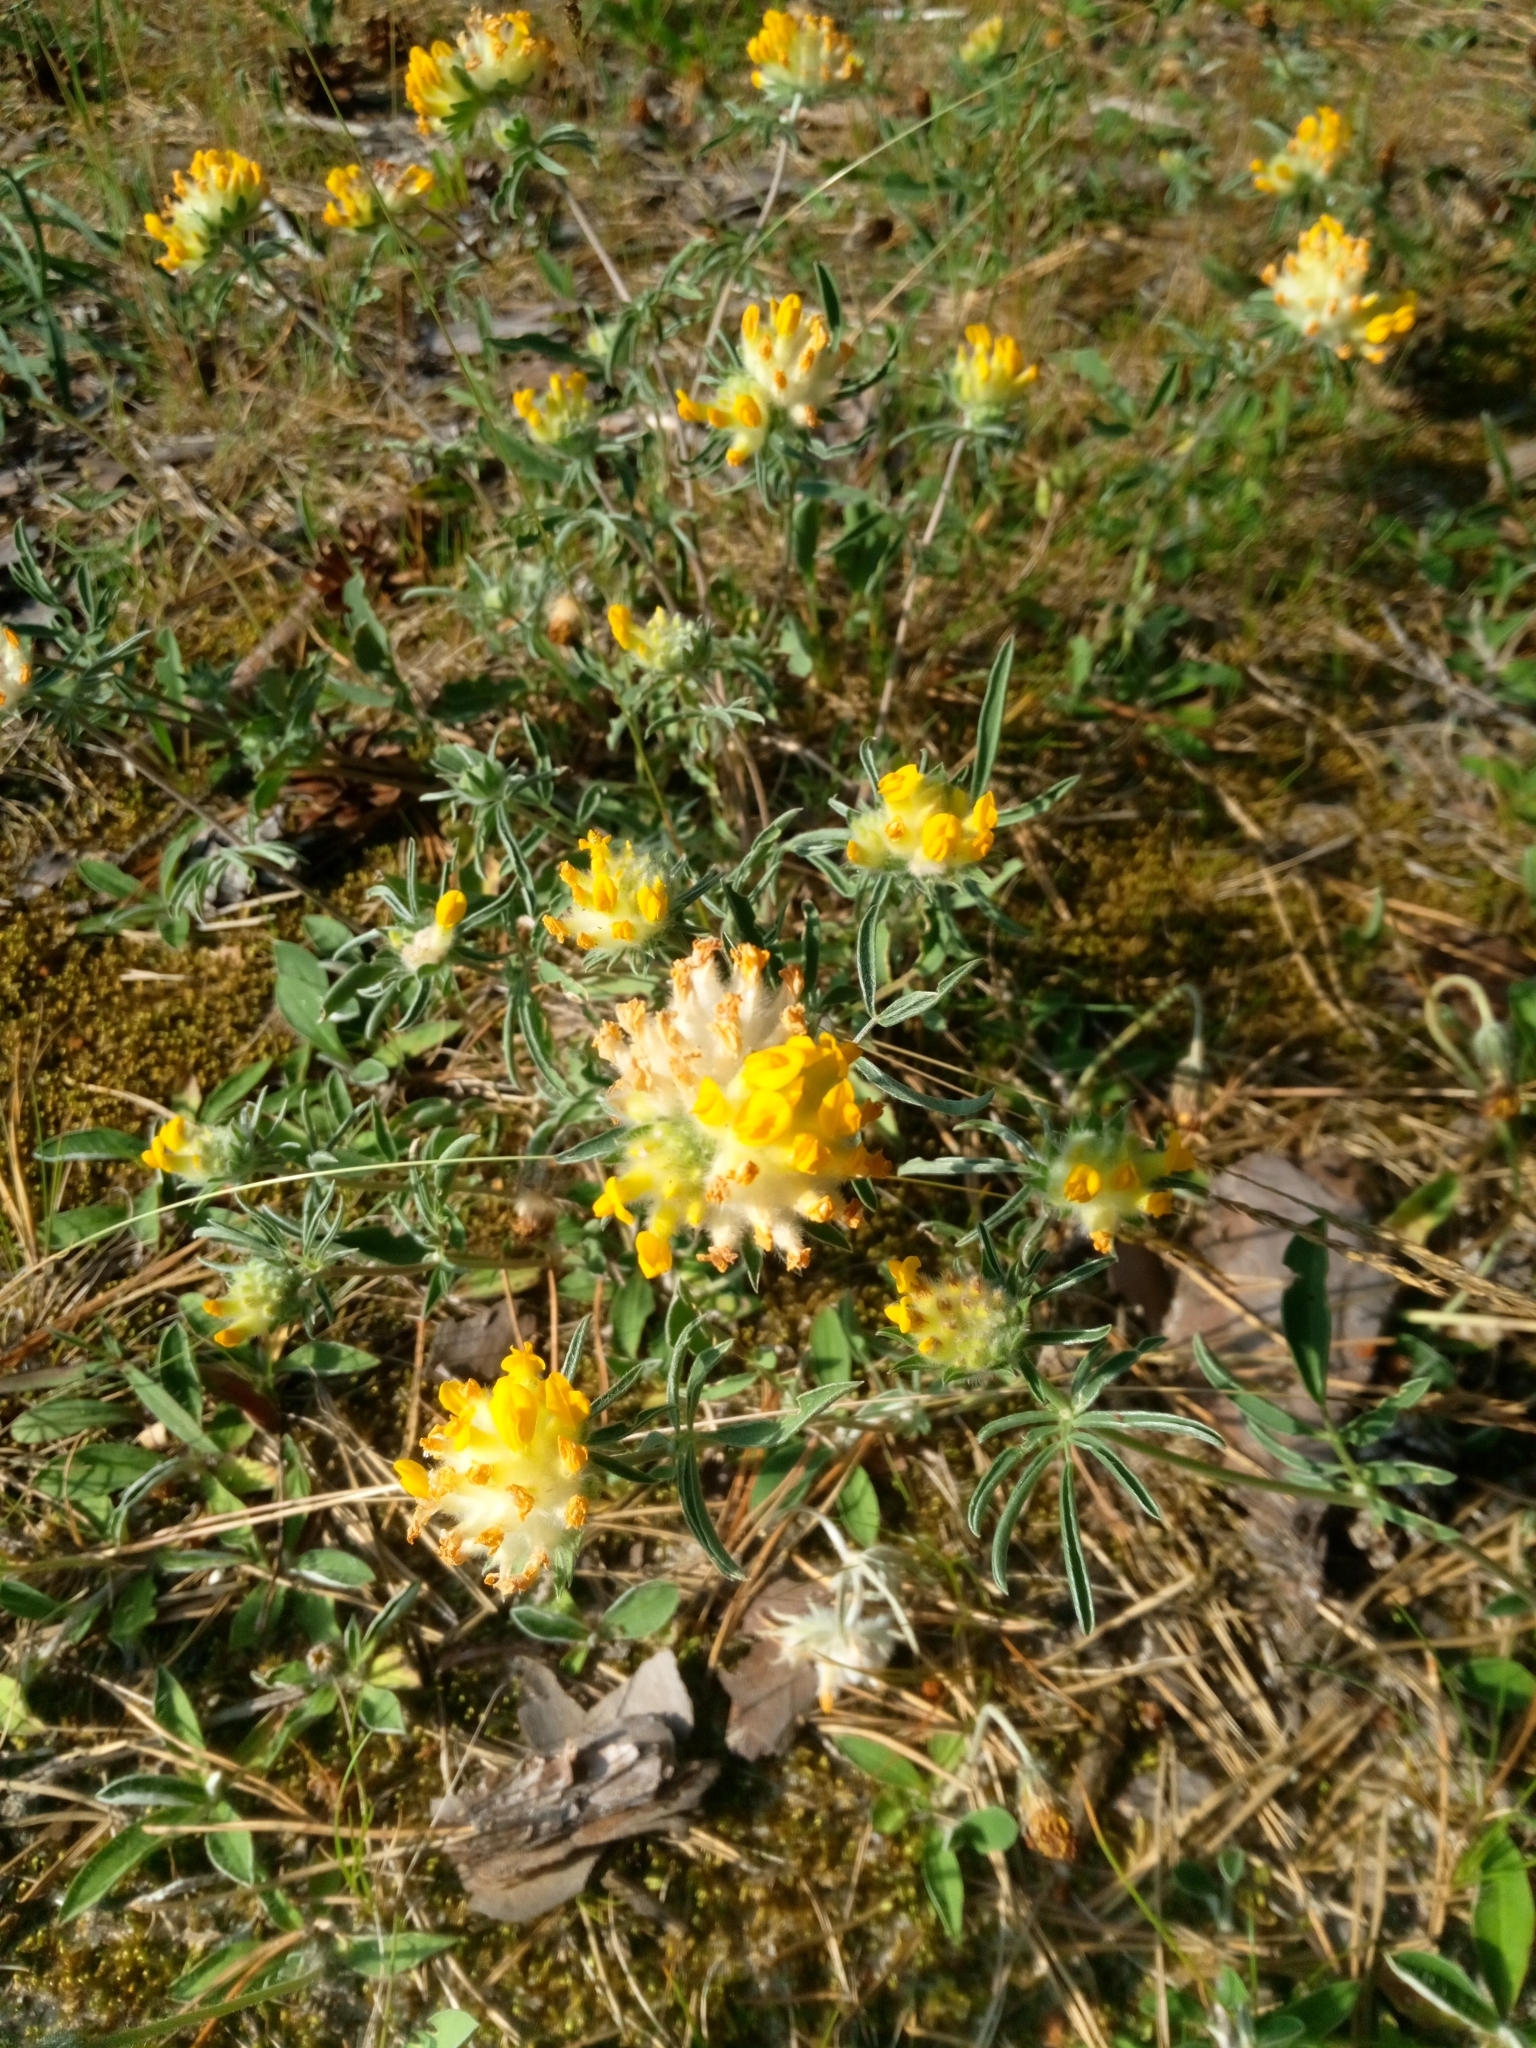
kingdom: Plantae
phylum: Tracheophyta
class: Magnoliopsida
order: Fabales
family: Fabaceae
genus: Anthyllis
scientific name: Anthyllis vulneraria
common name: Kidney vetch
